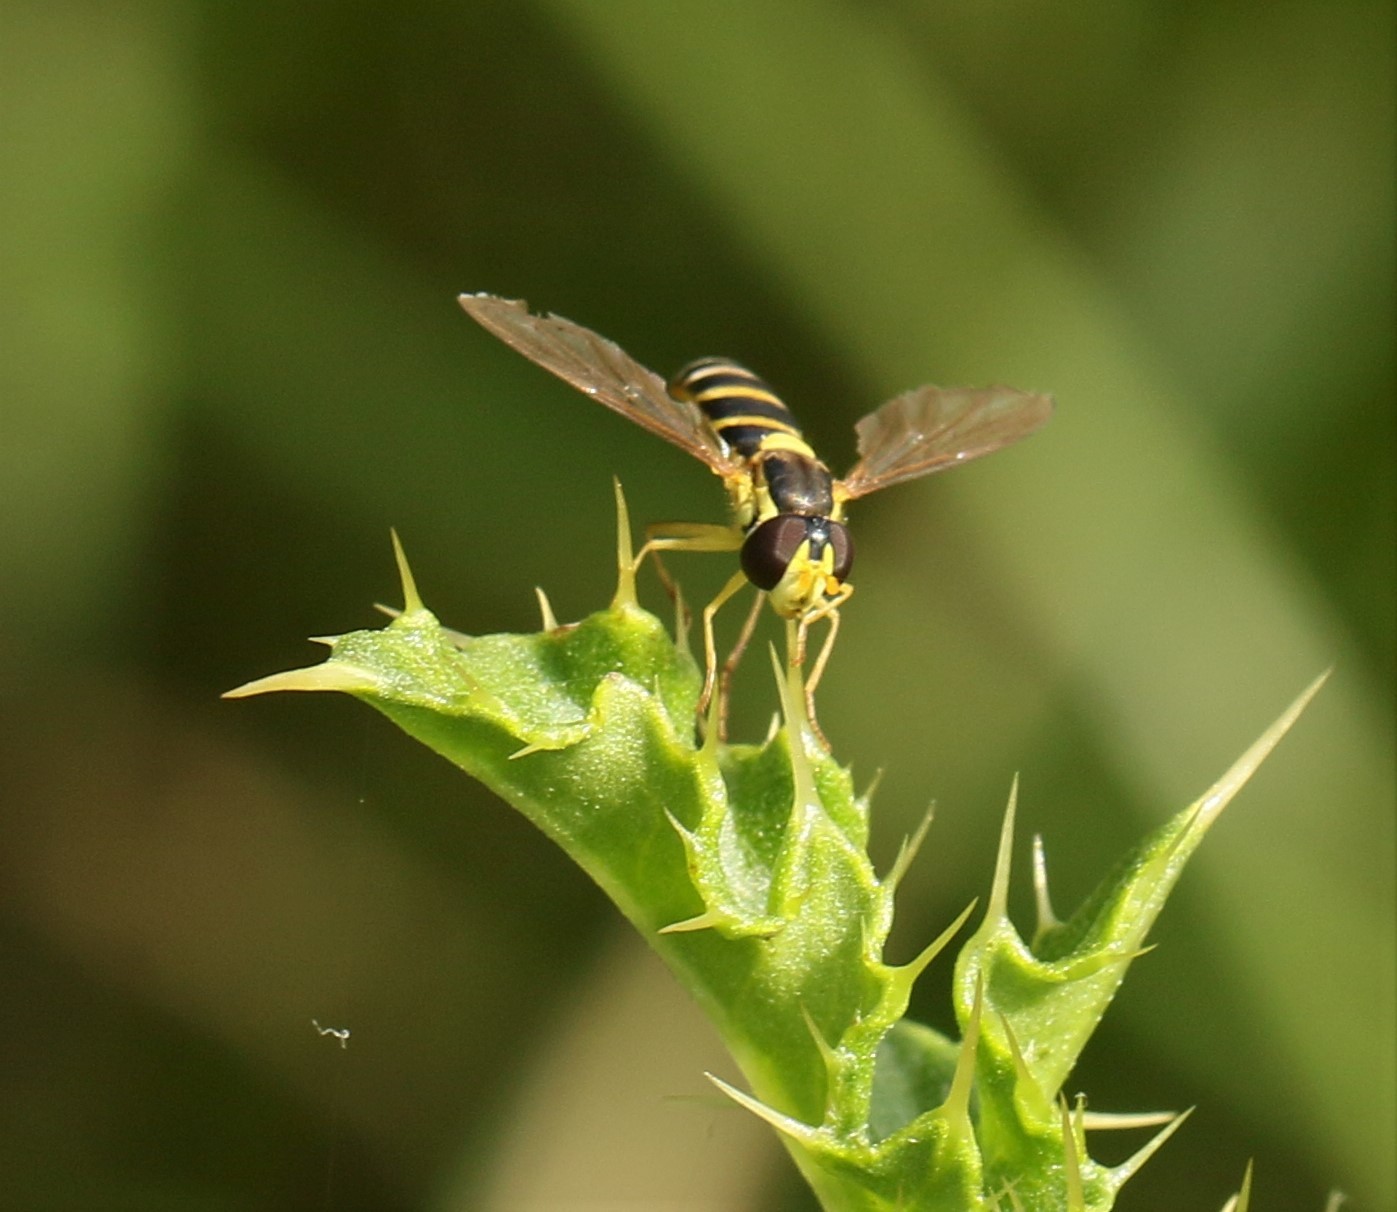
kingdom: Animalia
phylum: Arthropoda
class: Insecta
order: Diptera
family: Syrphidae
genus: Sphaerophoria
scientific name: Sphaerophoria
